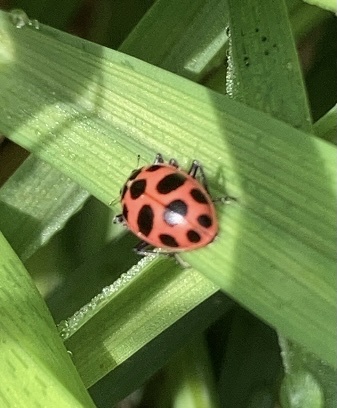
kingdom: Animalia
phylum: Arthropoda
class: Insecta
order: Coleoptera
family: Coccinellidae
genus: Coleomegilla
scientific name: Coleomegilla maculata
